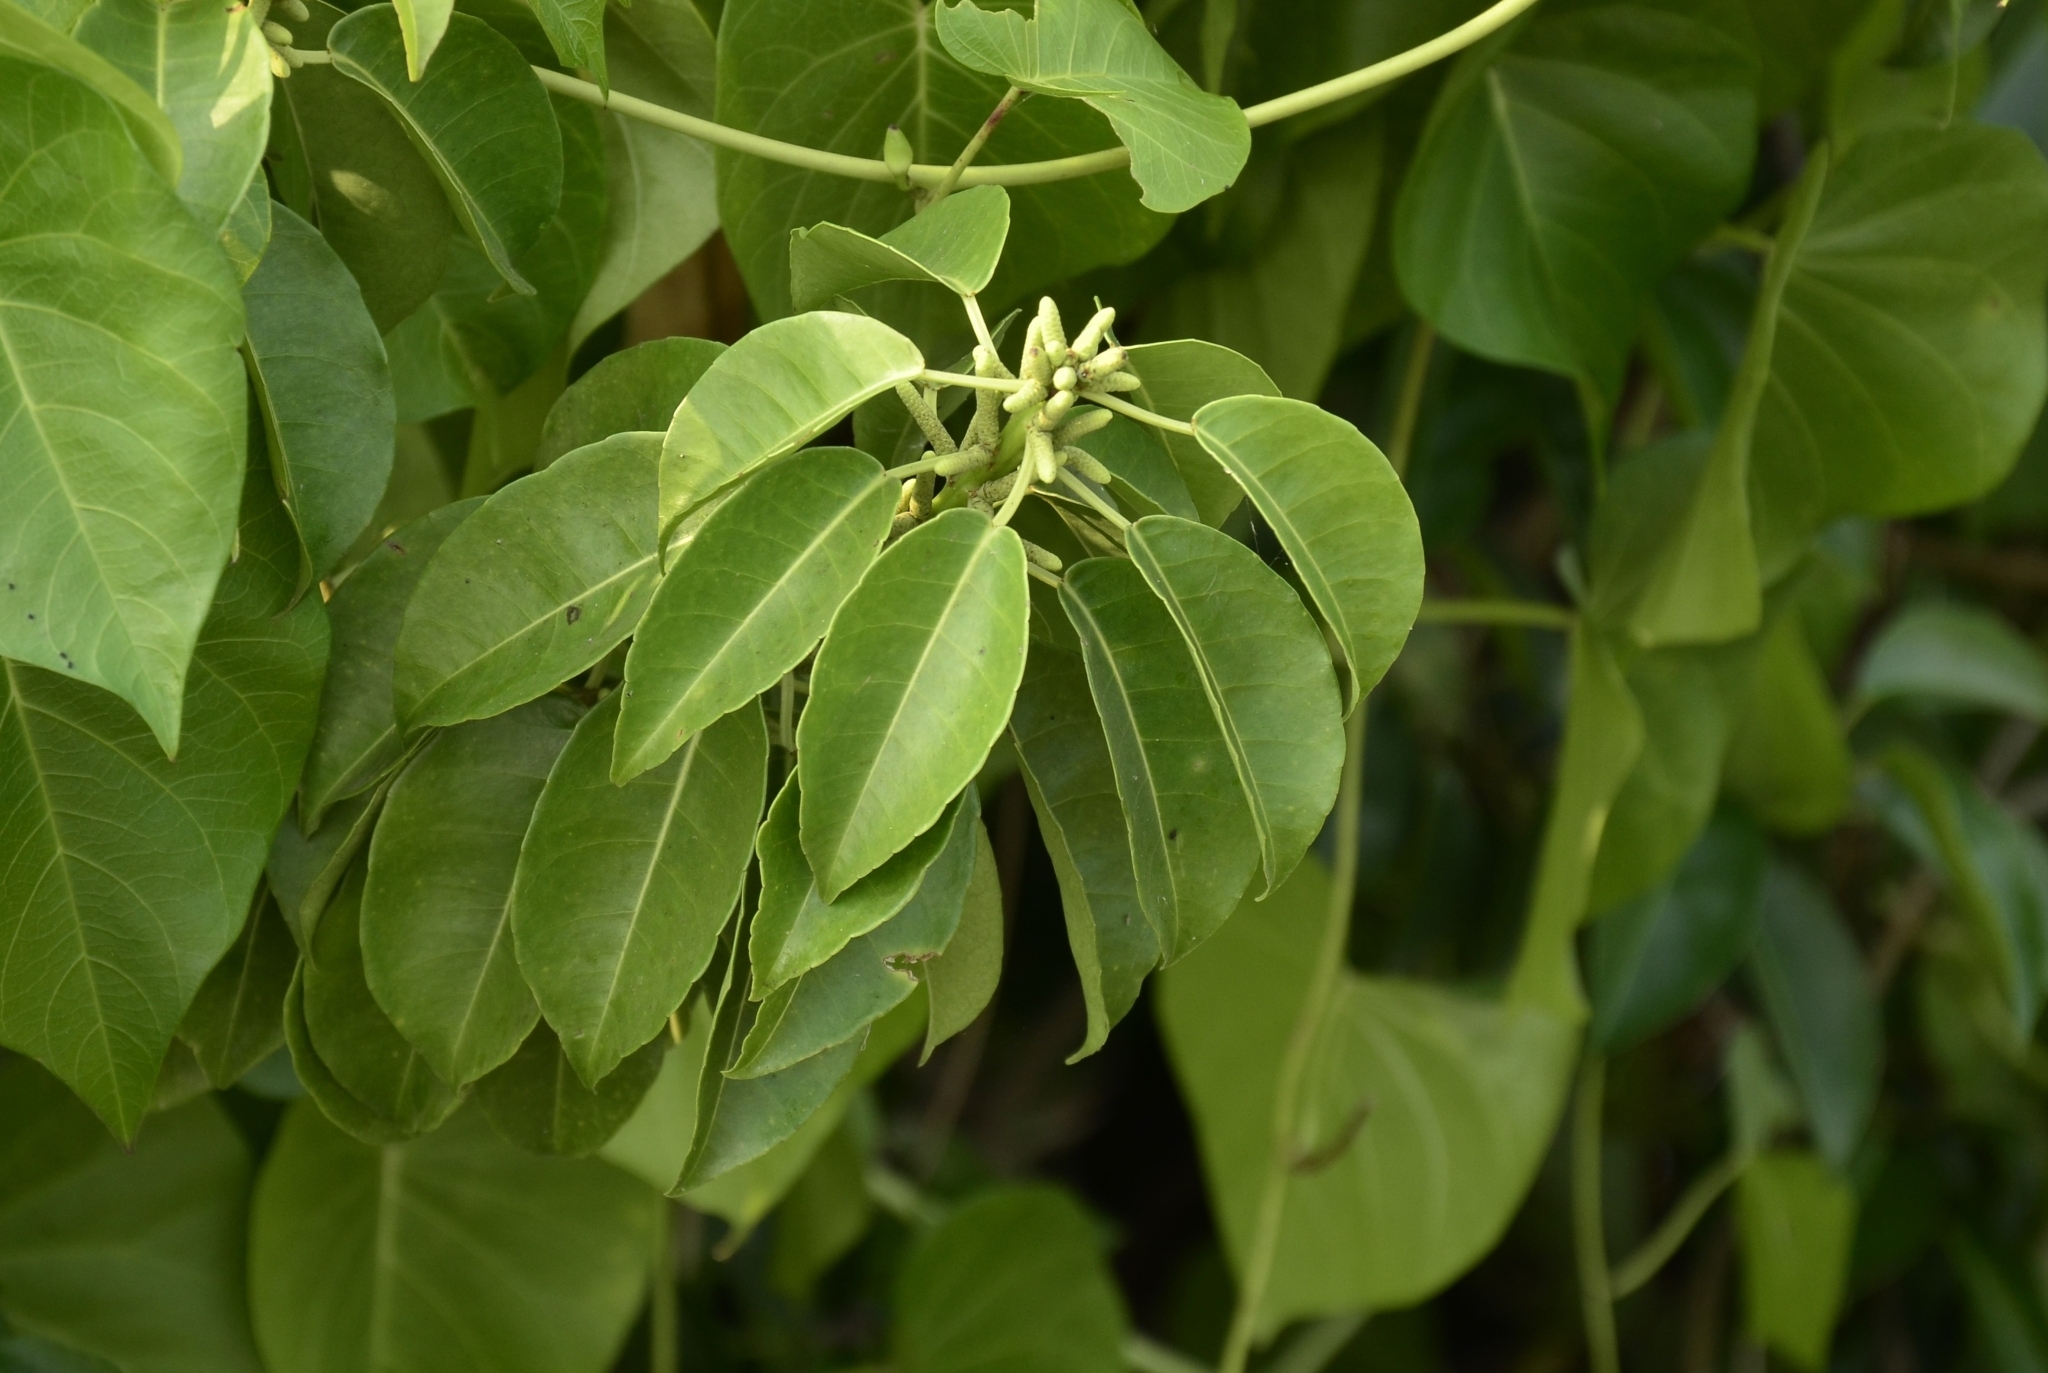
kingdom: Plantae
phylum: Tracheophyta
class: Magnoliopsida
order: Malpighiales
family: Euphorbiaceae
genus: Excoecaria
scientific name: Excoecaria agallocha
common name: River poisontree
